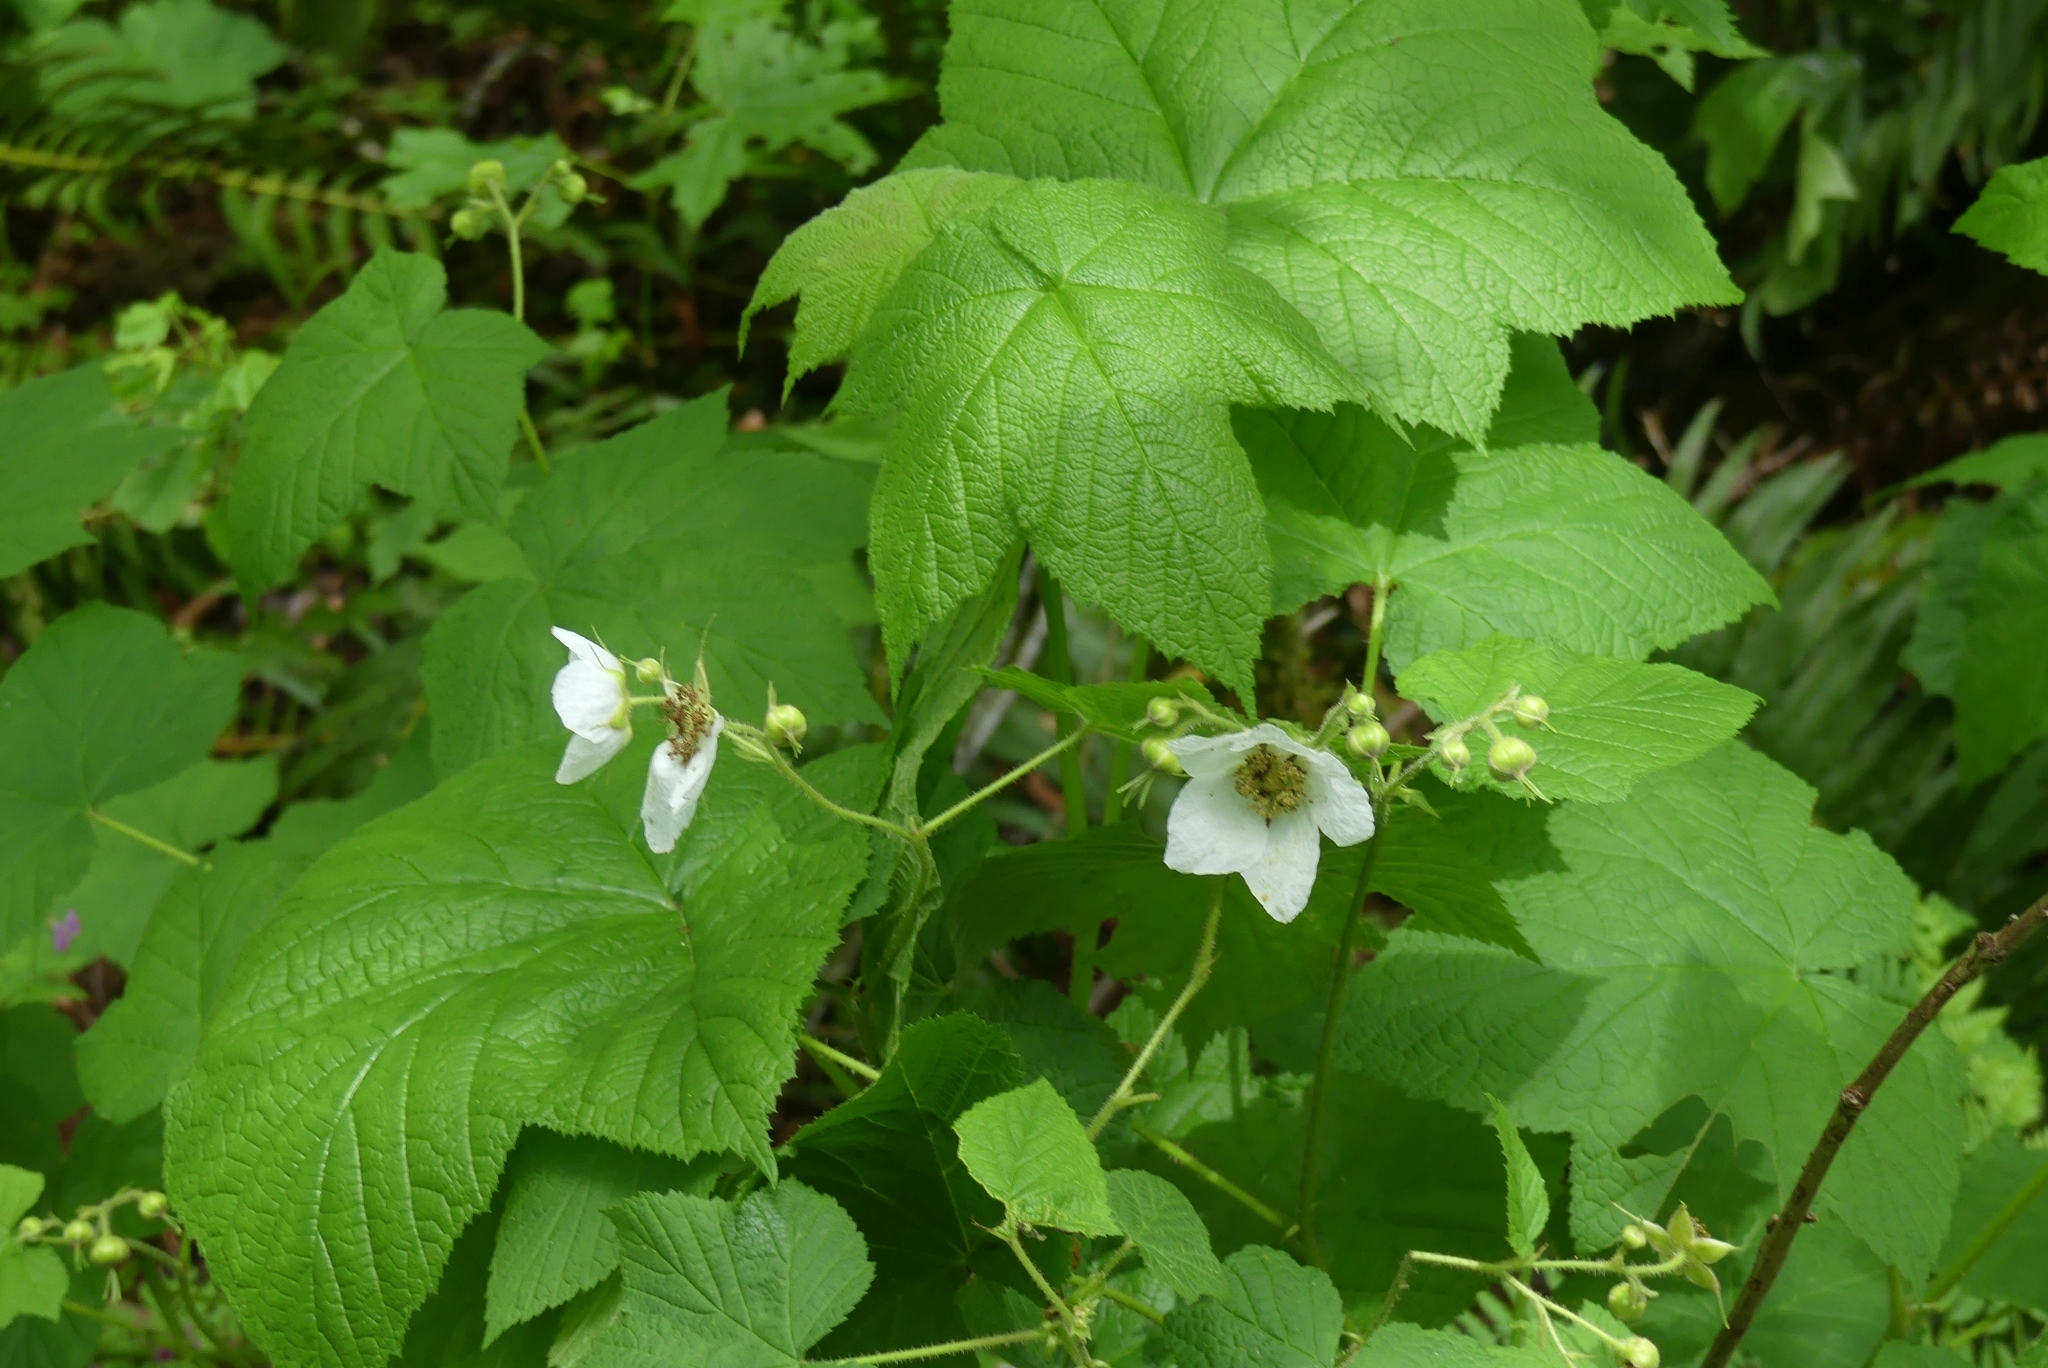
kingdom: Plantae
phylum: Tracheophyta
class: Magnoliopsida
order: Rosales
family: Rosaceae
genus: Rubus
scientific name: Rubus parviflorus
